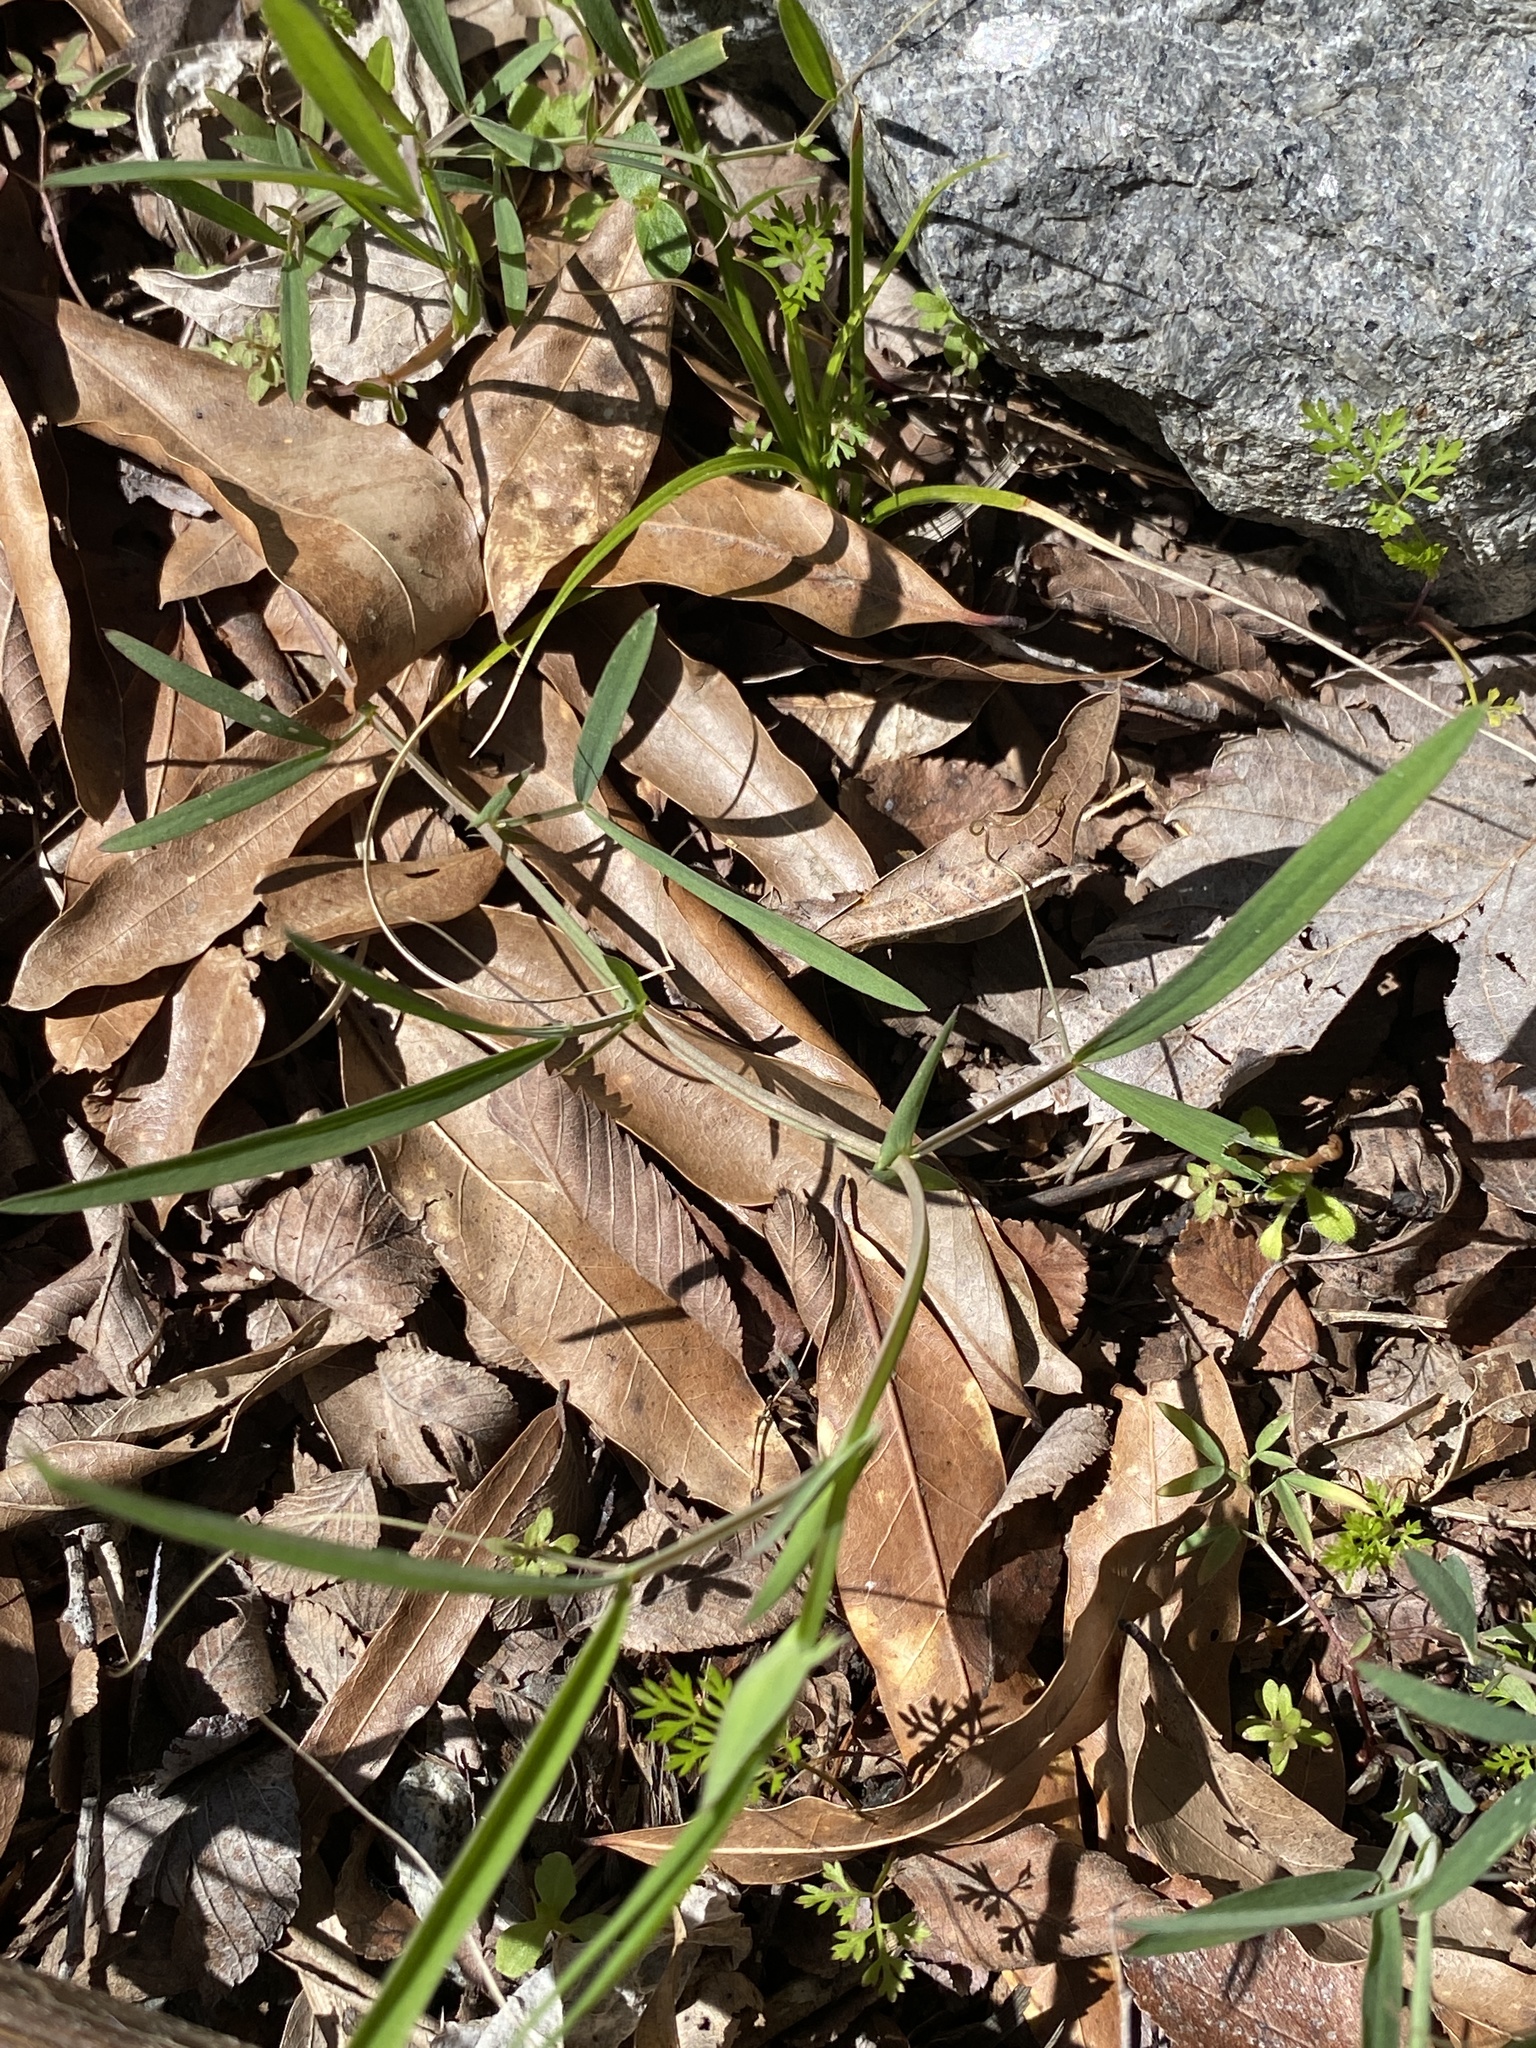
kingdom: Plantae
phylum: Tracheophyta
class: Magnoliopsida
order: Fabales
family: Fabaceae
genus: Lathyrus
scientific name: Lathyrus pusillus
